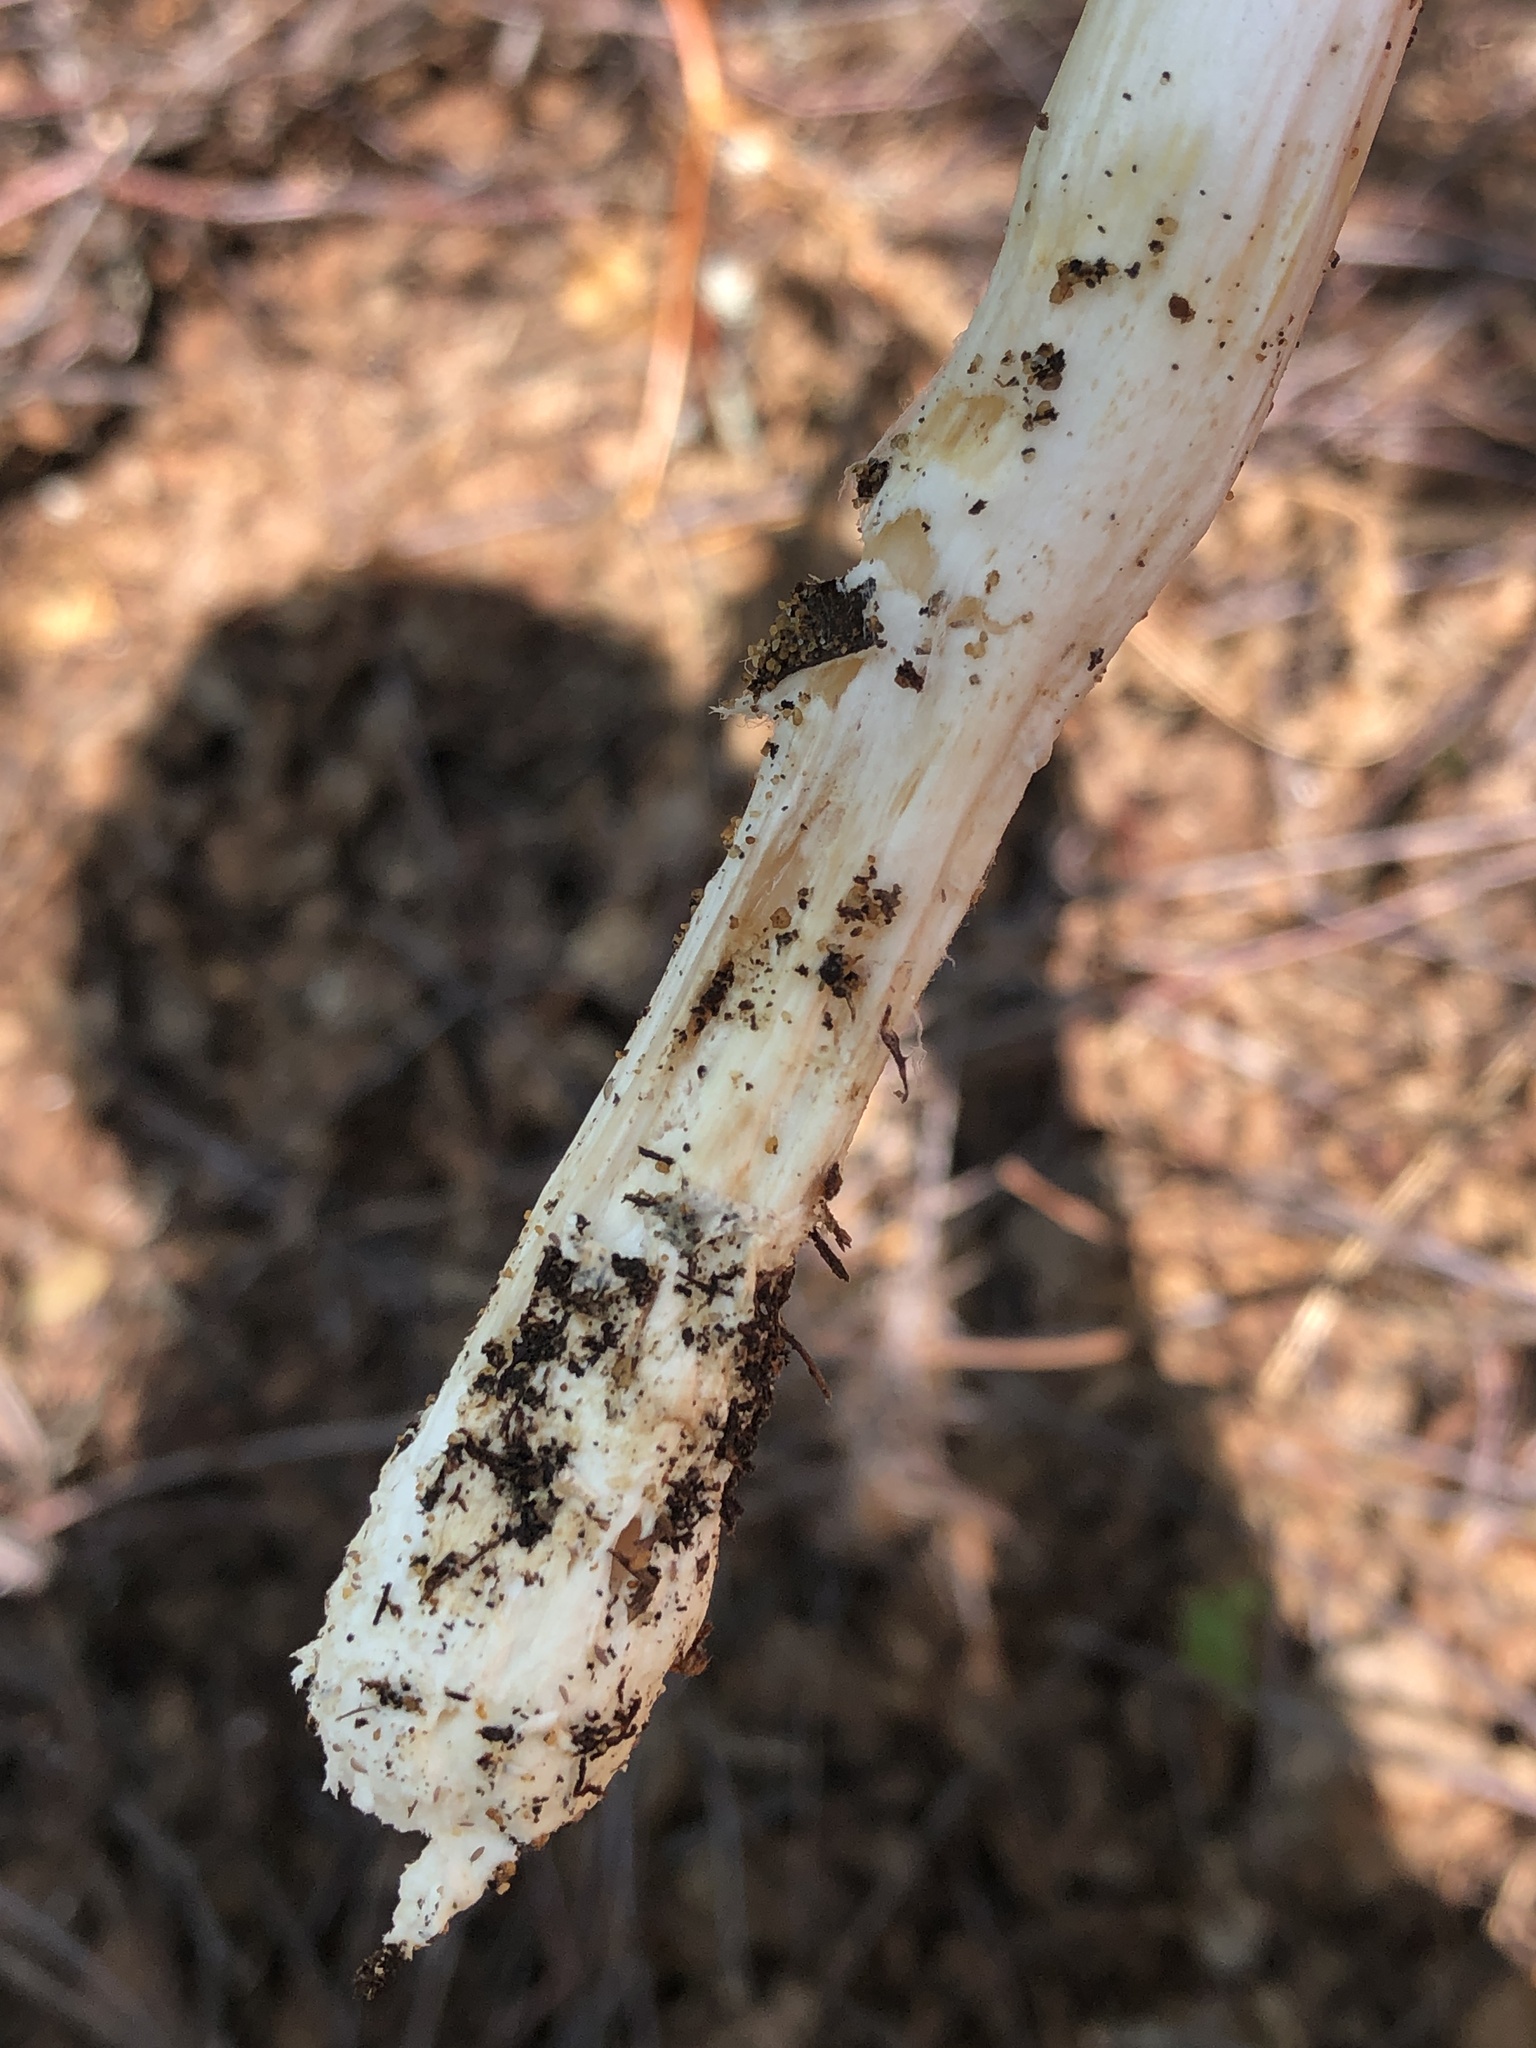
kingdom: Fungi
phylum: Basidiomycota
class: Agaricomycetes
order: Agaricales
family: Amanitaceae
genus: Amanita
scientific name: Amanita wellsii
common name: Salmon amanita
